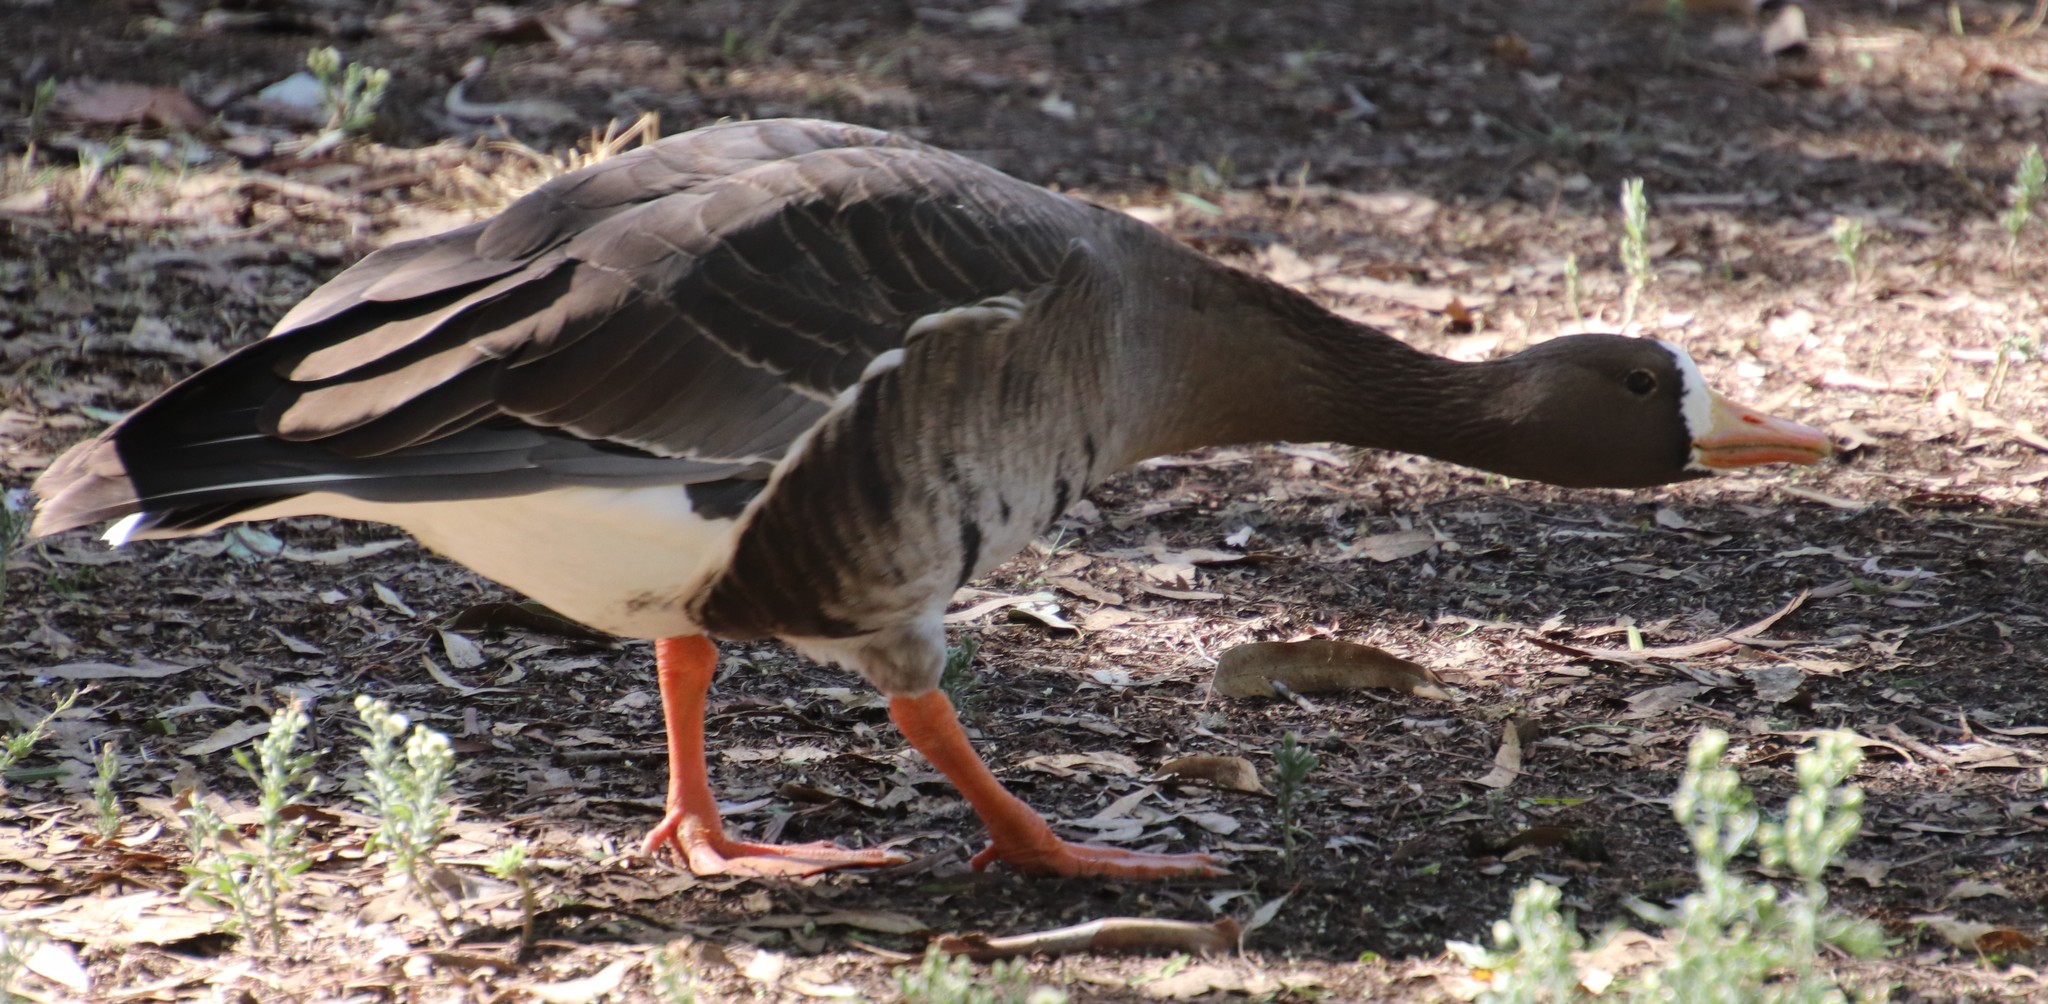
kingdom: Animalia
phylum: Chordata
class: Aves
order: Anseriformes
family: Anatidae
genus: Anser
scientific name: Anser albifrons
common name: Greater white-fronted goose
